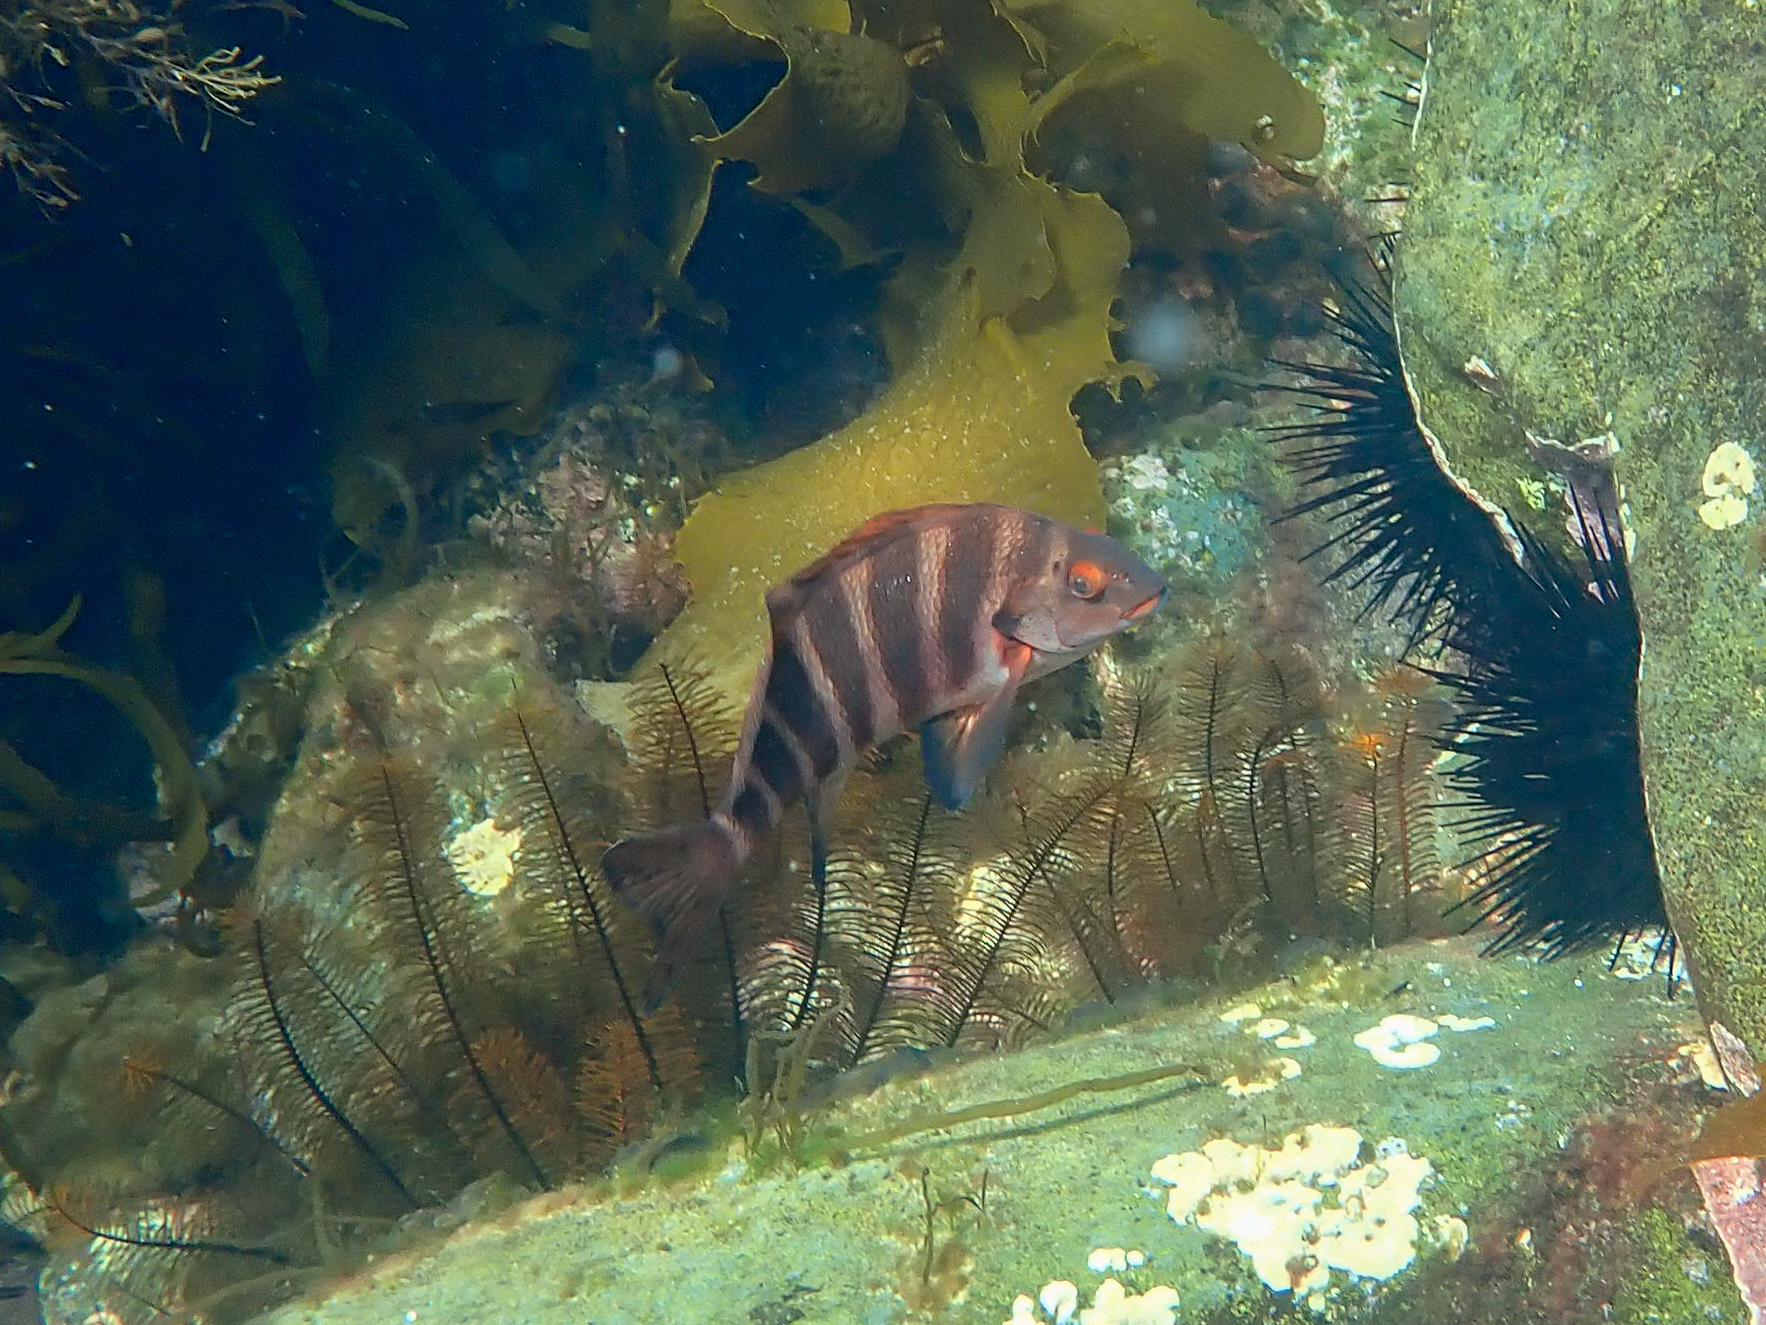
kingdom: Animalia
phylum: Chordata
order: Perciformes
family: Cheilodactylidae
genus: Cheilodactylus
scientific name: Cheilodactylus spectabilis
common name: Red moki
